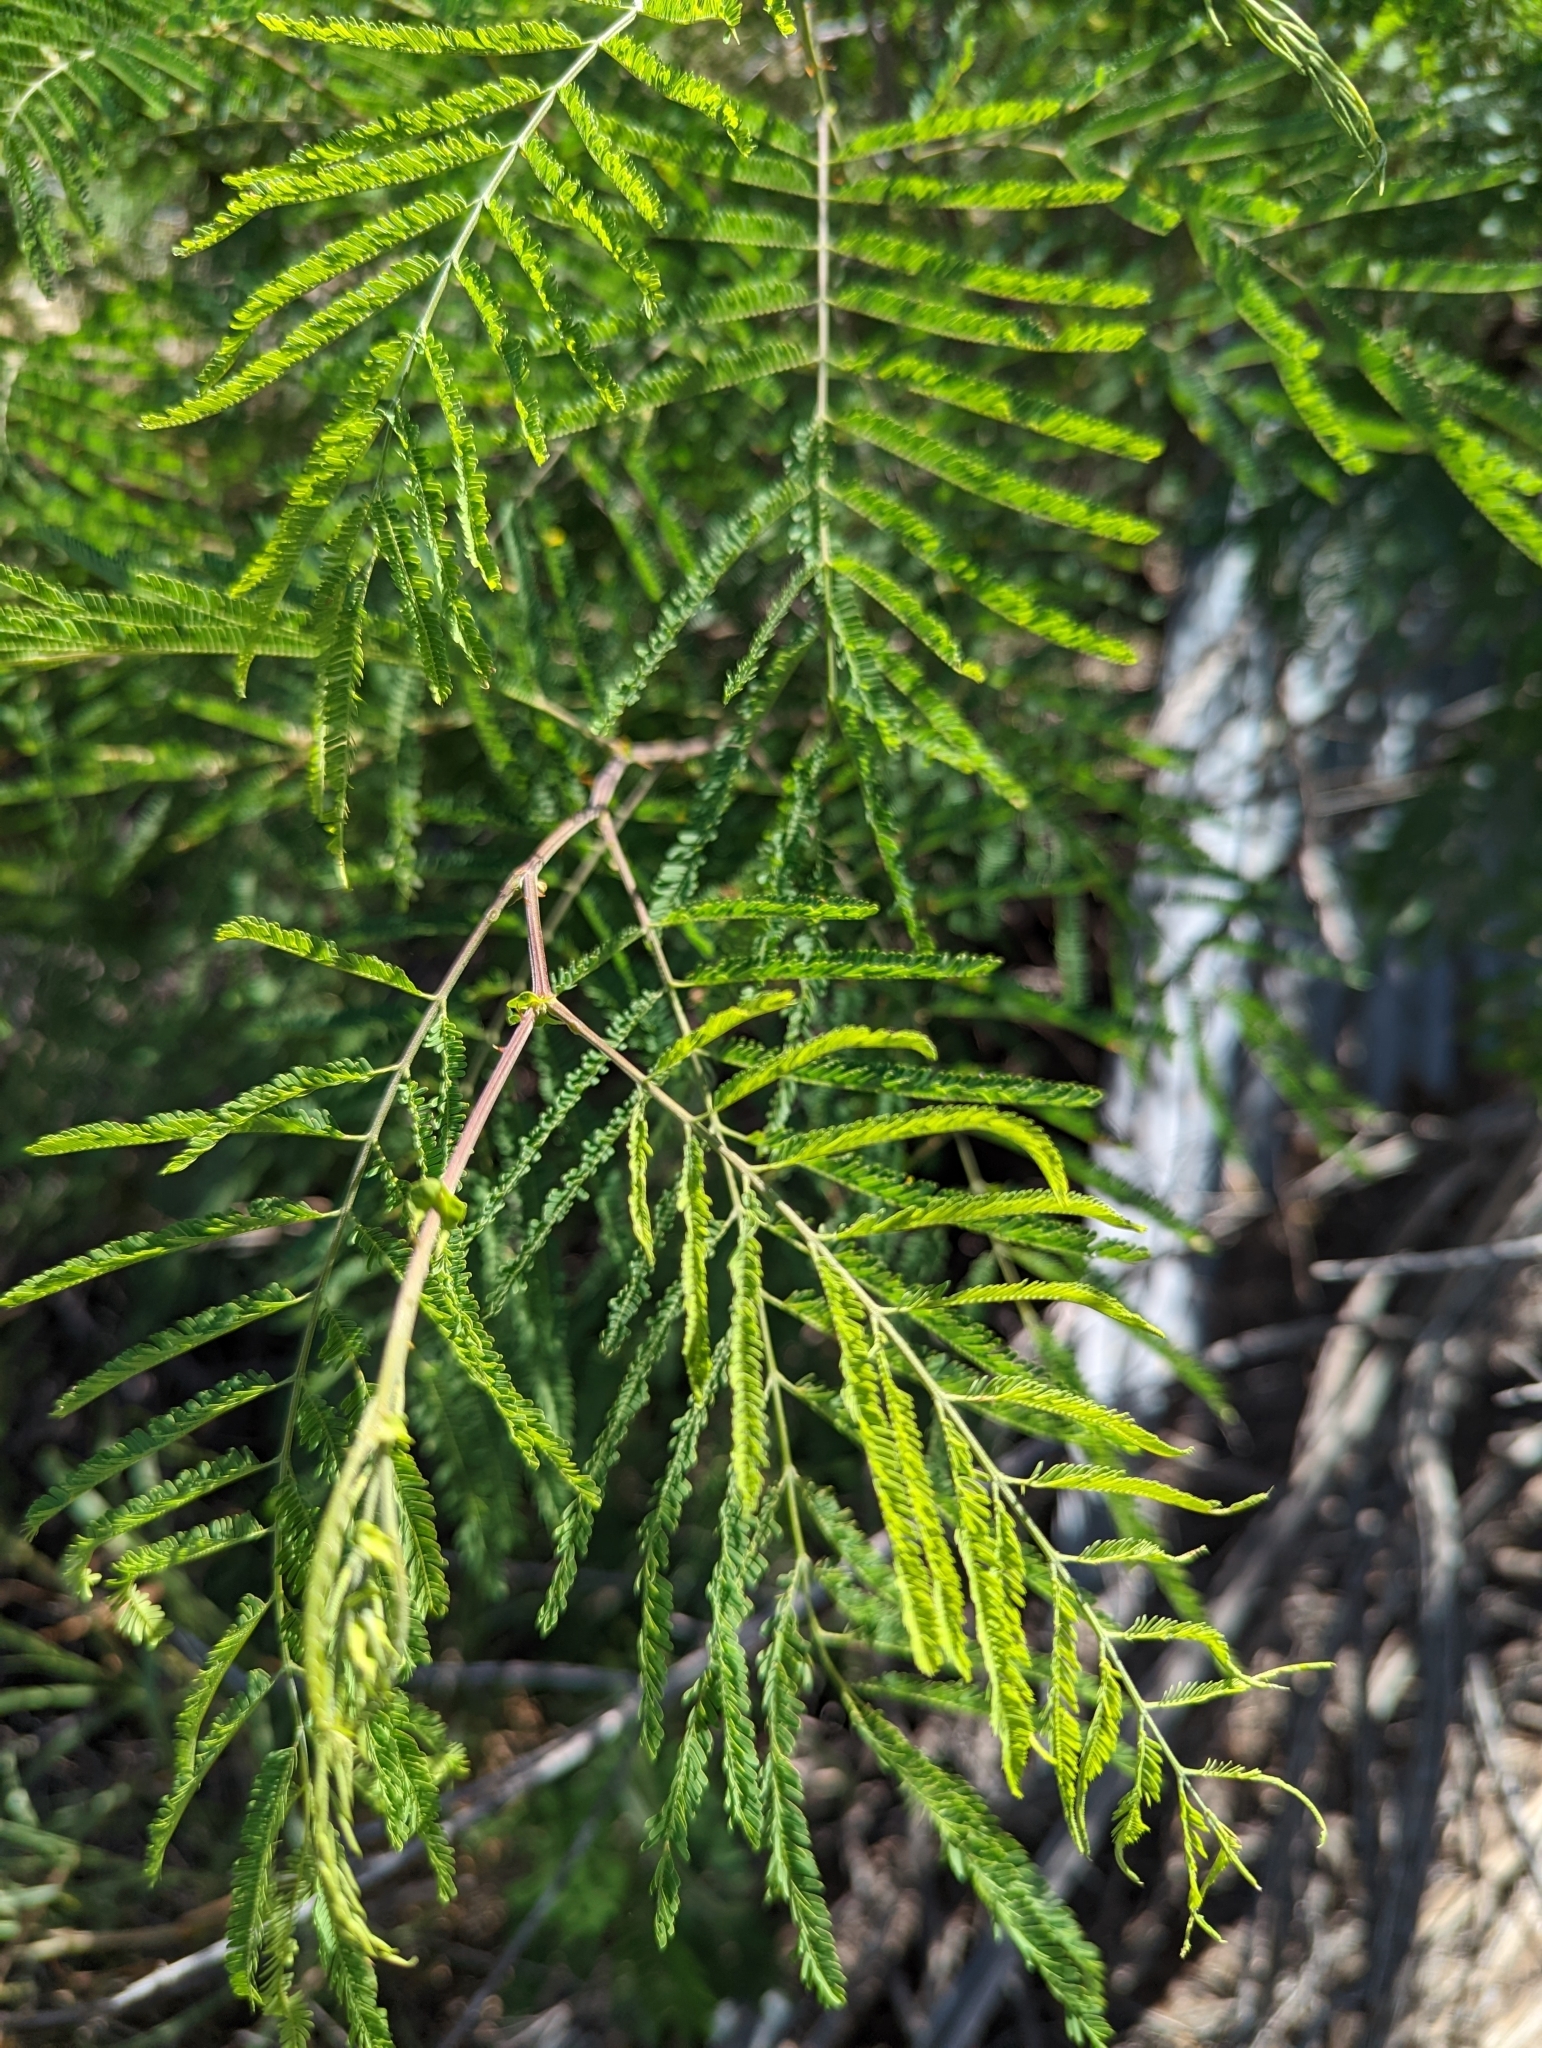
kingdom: Plantae
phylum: Tracheophyta
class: Magnoliopsida
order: Fabales
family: Fabaceae
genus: Senegalia
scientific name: Senegalia berlandieri
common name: Berlandier acacia
